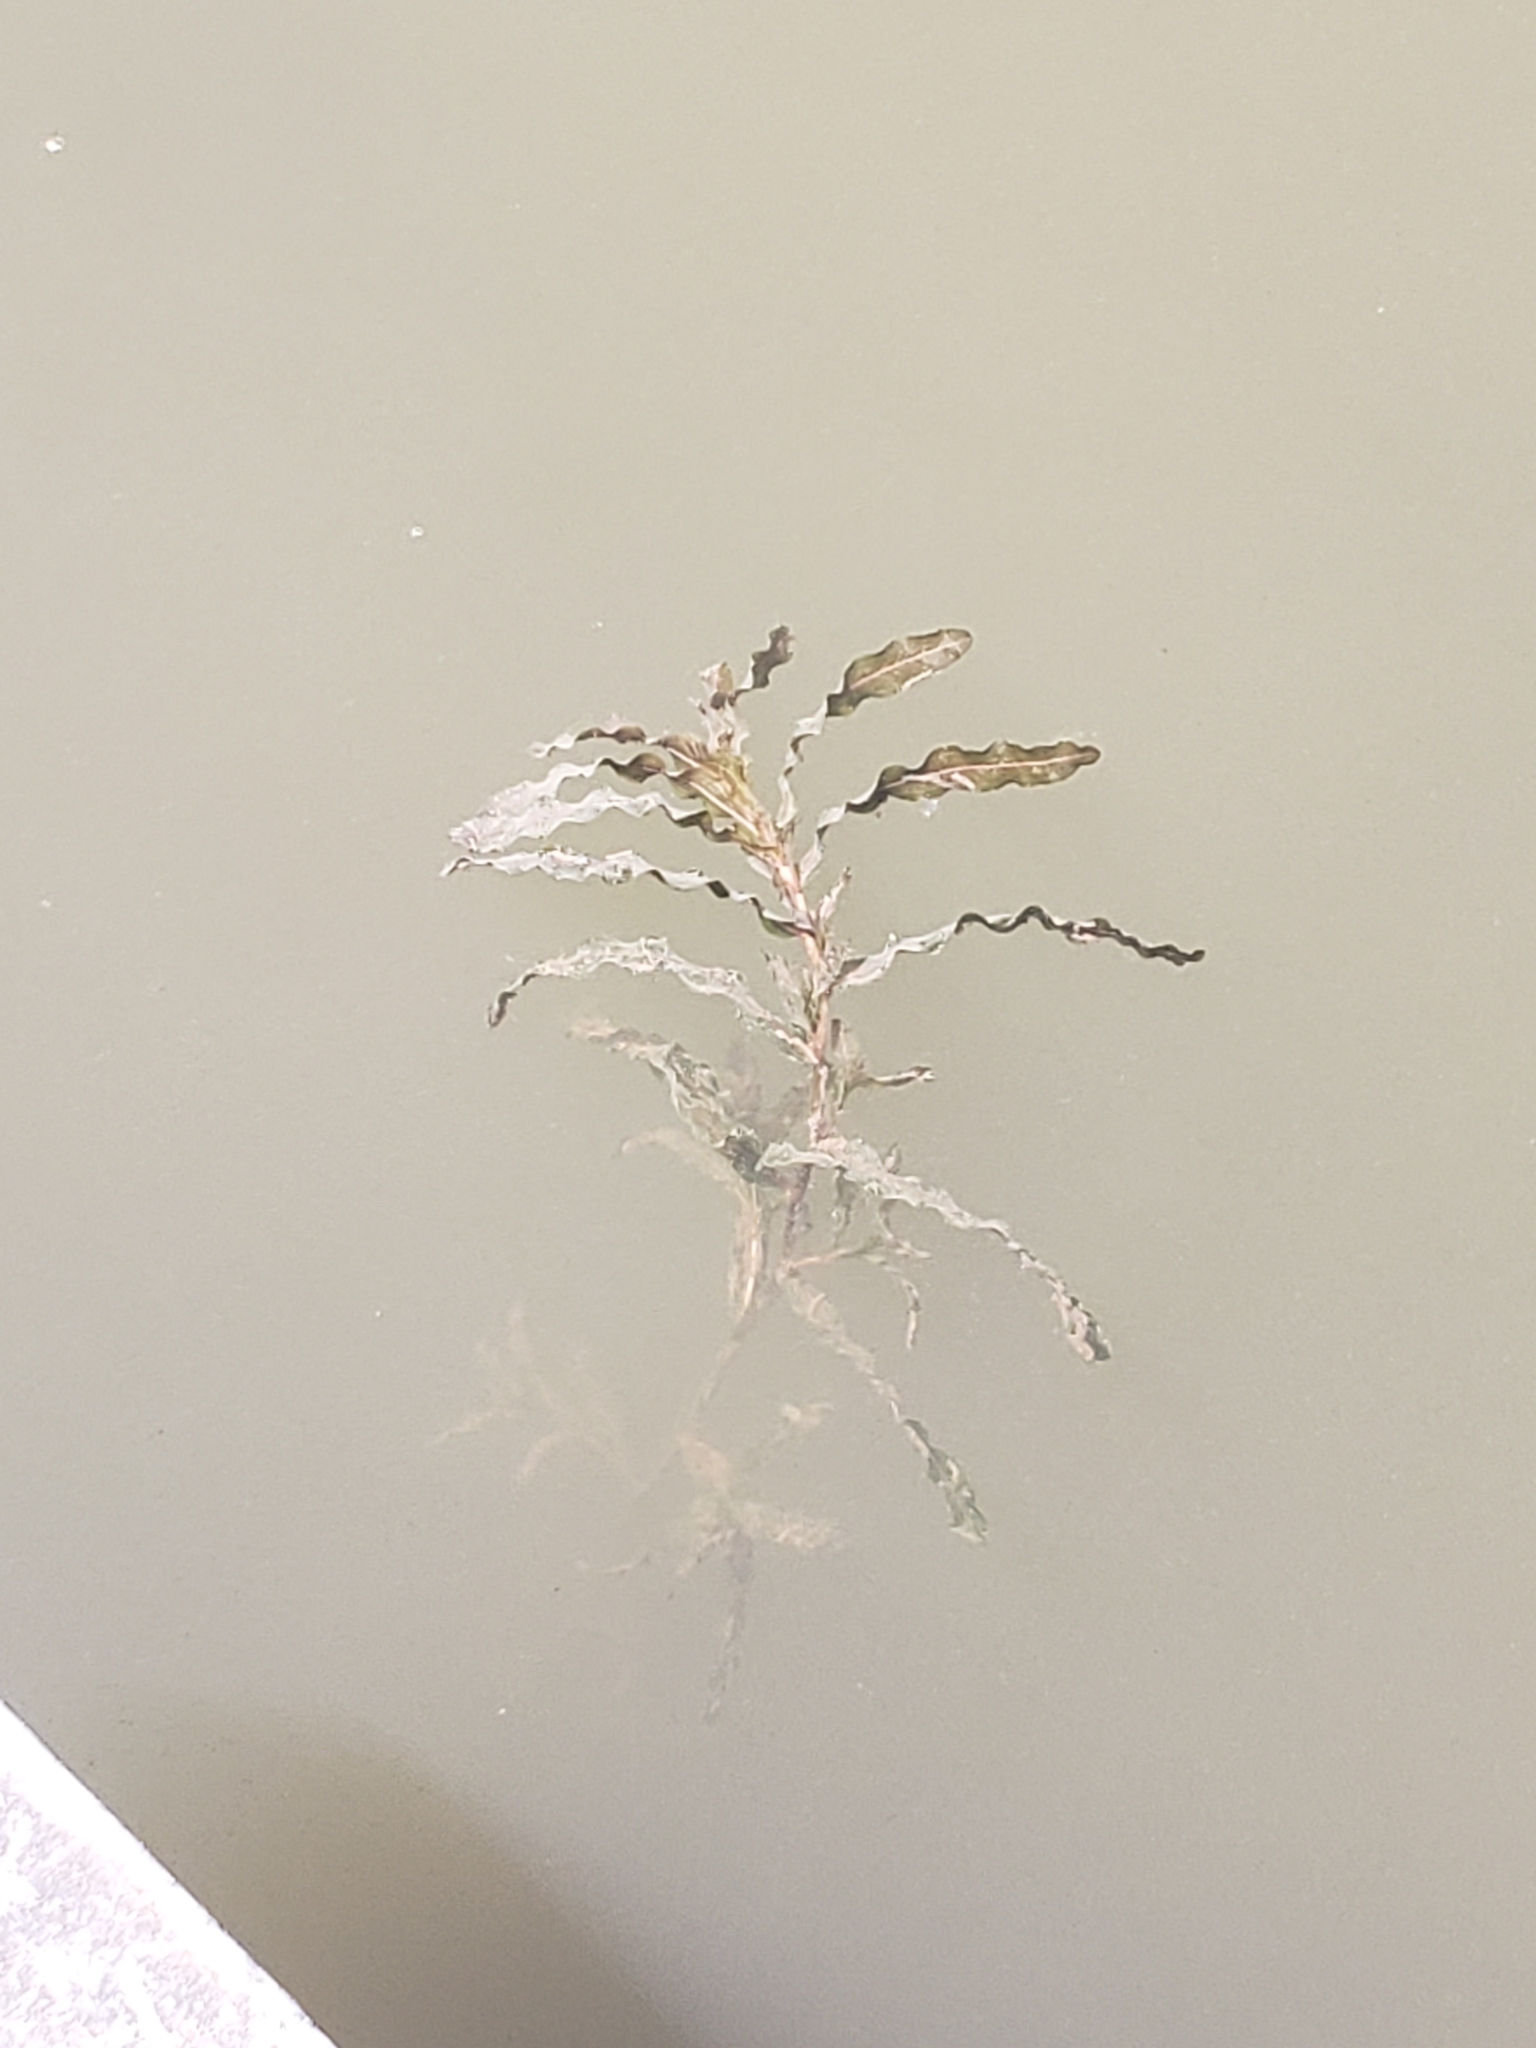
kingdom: Plantae
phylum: Tracheophyta
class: Liliopsida
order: Alismatales
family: Potamogetonaceae
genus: Potamogeton
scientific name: Potamogeton crispus
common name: Curled pondweed
